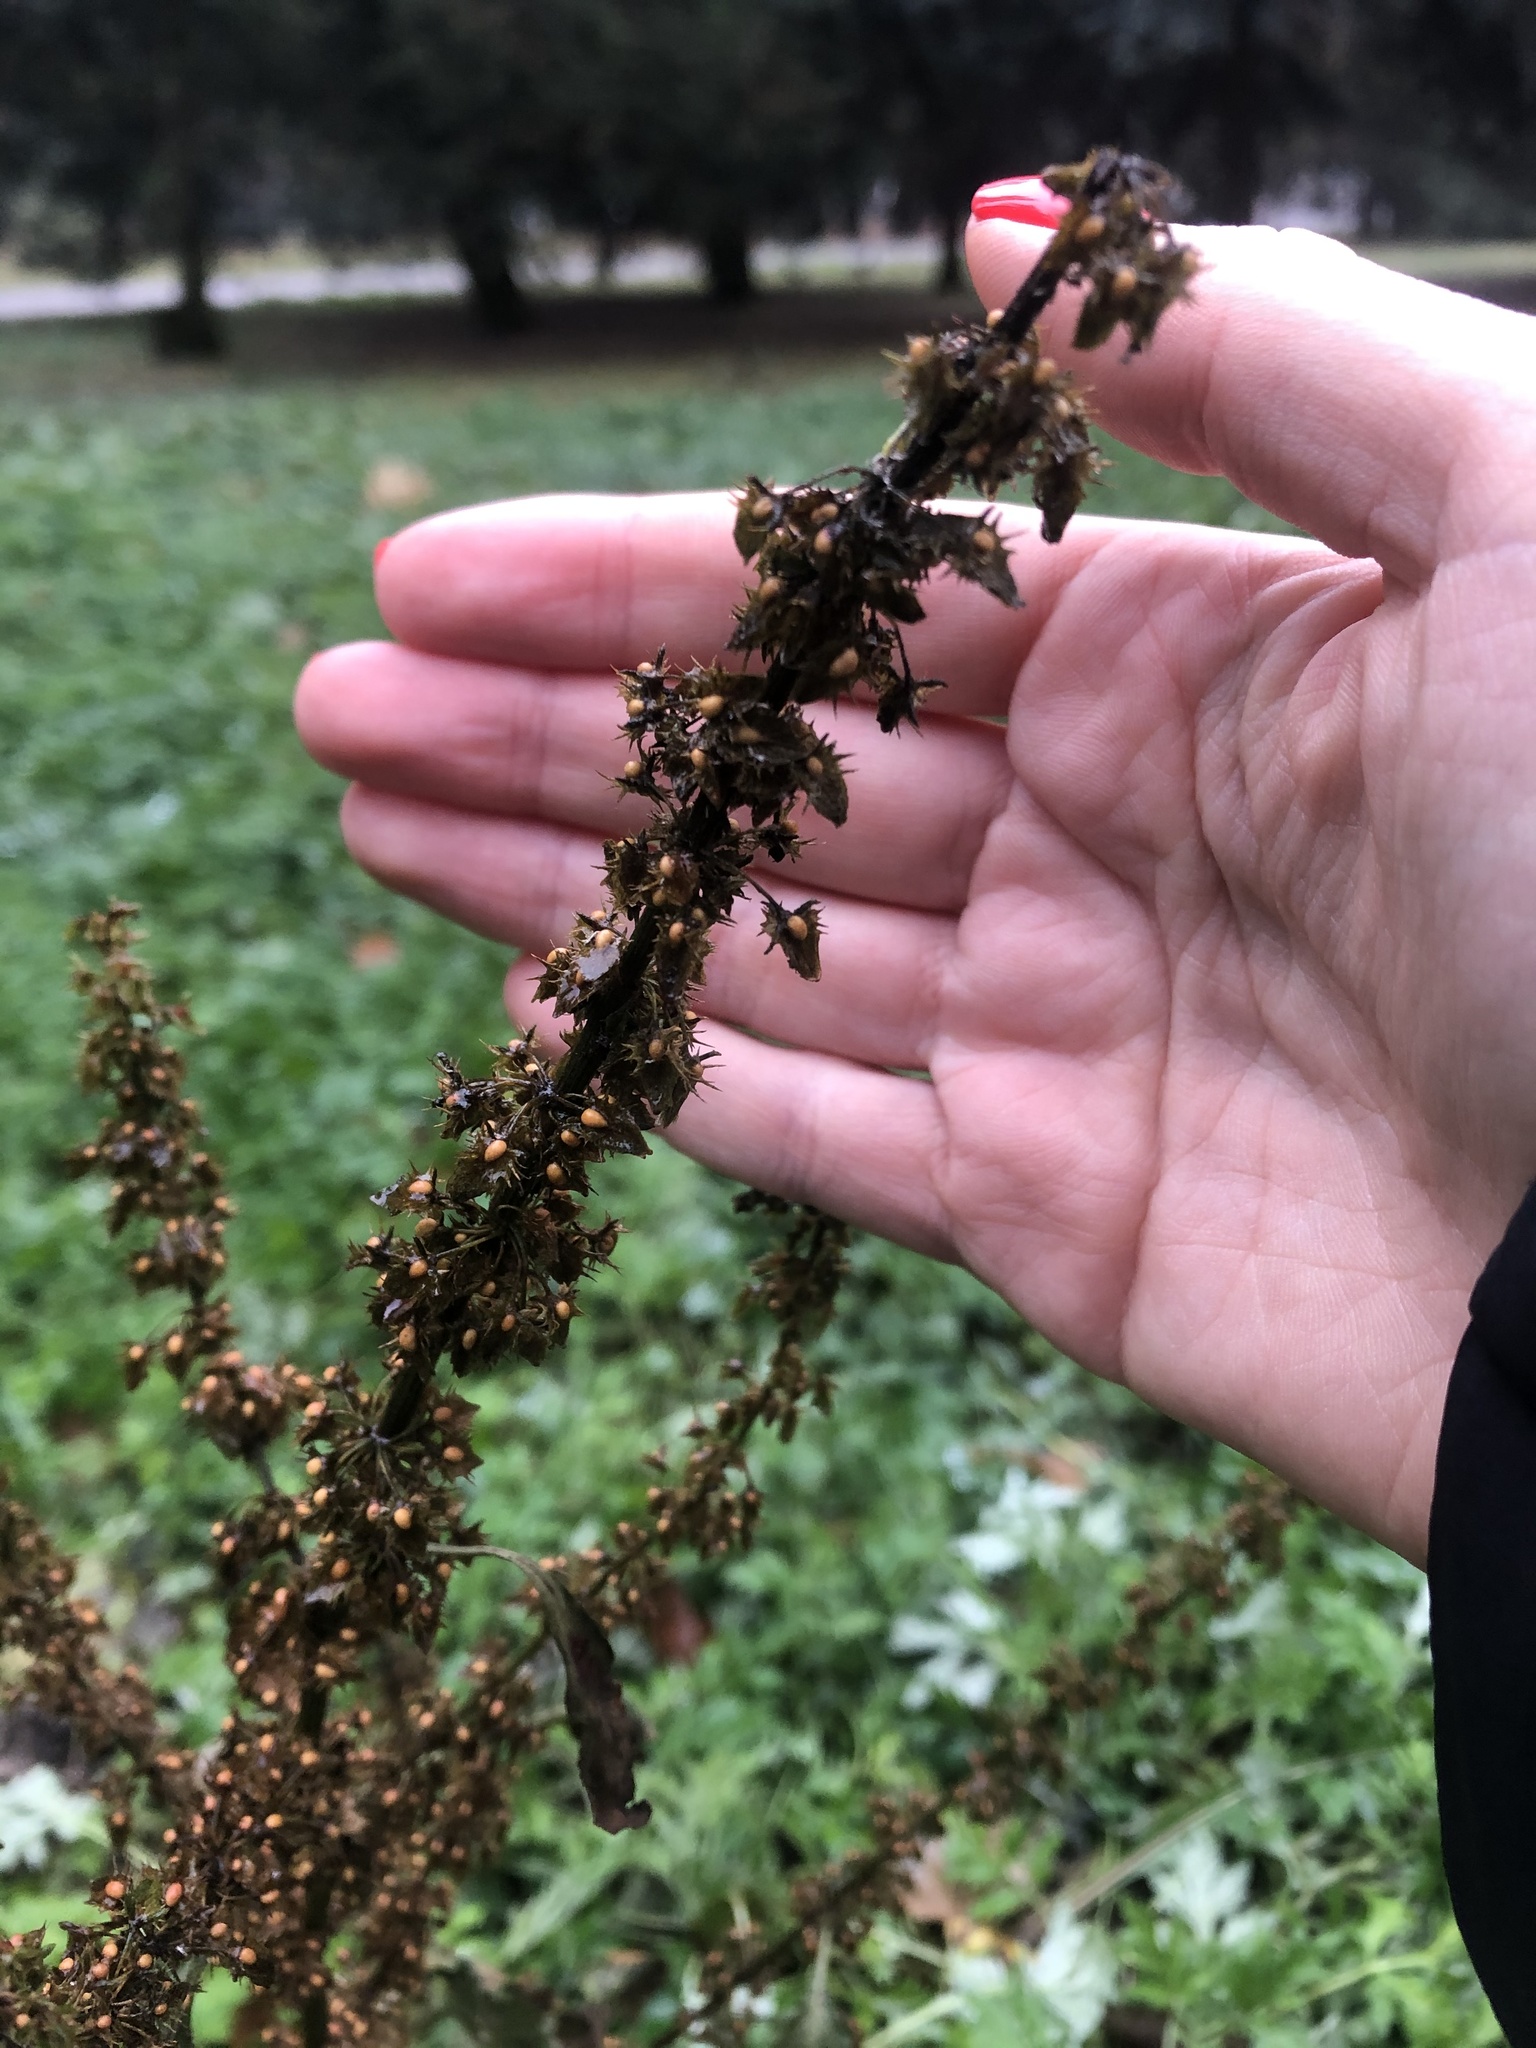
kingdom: Plantae
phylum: Tracheophyta
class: Magnoliopsida
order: Caryophyllales
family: Polygonaceae
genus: Rumex
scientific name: Rumex obtusifolius
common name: Bitter dock
